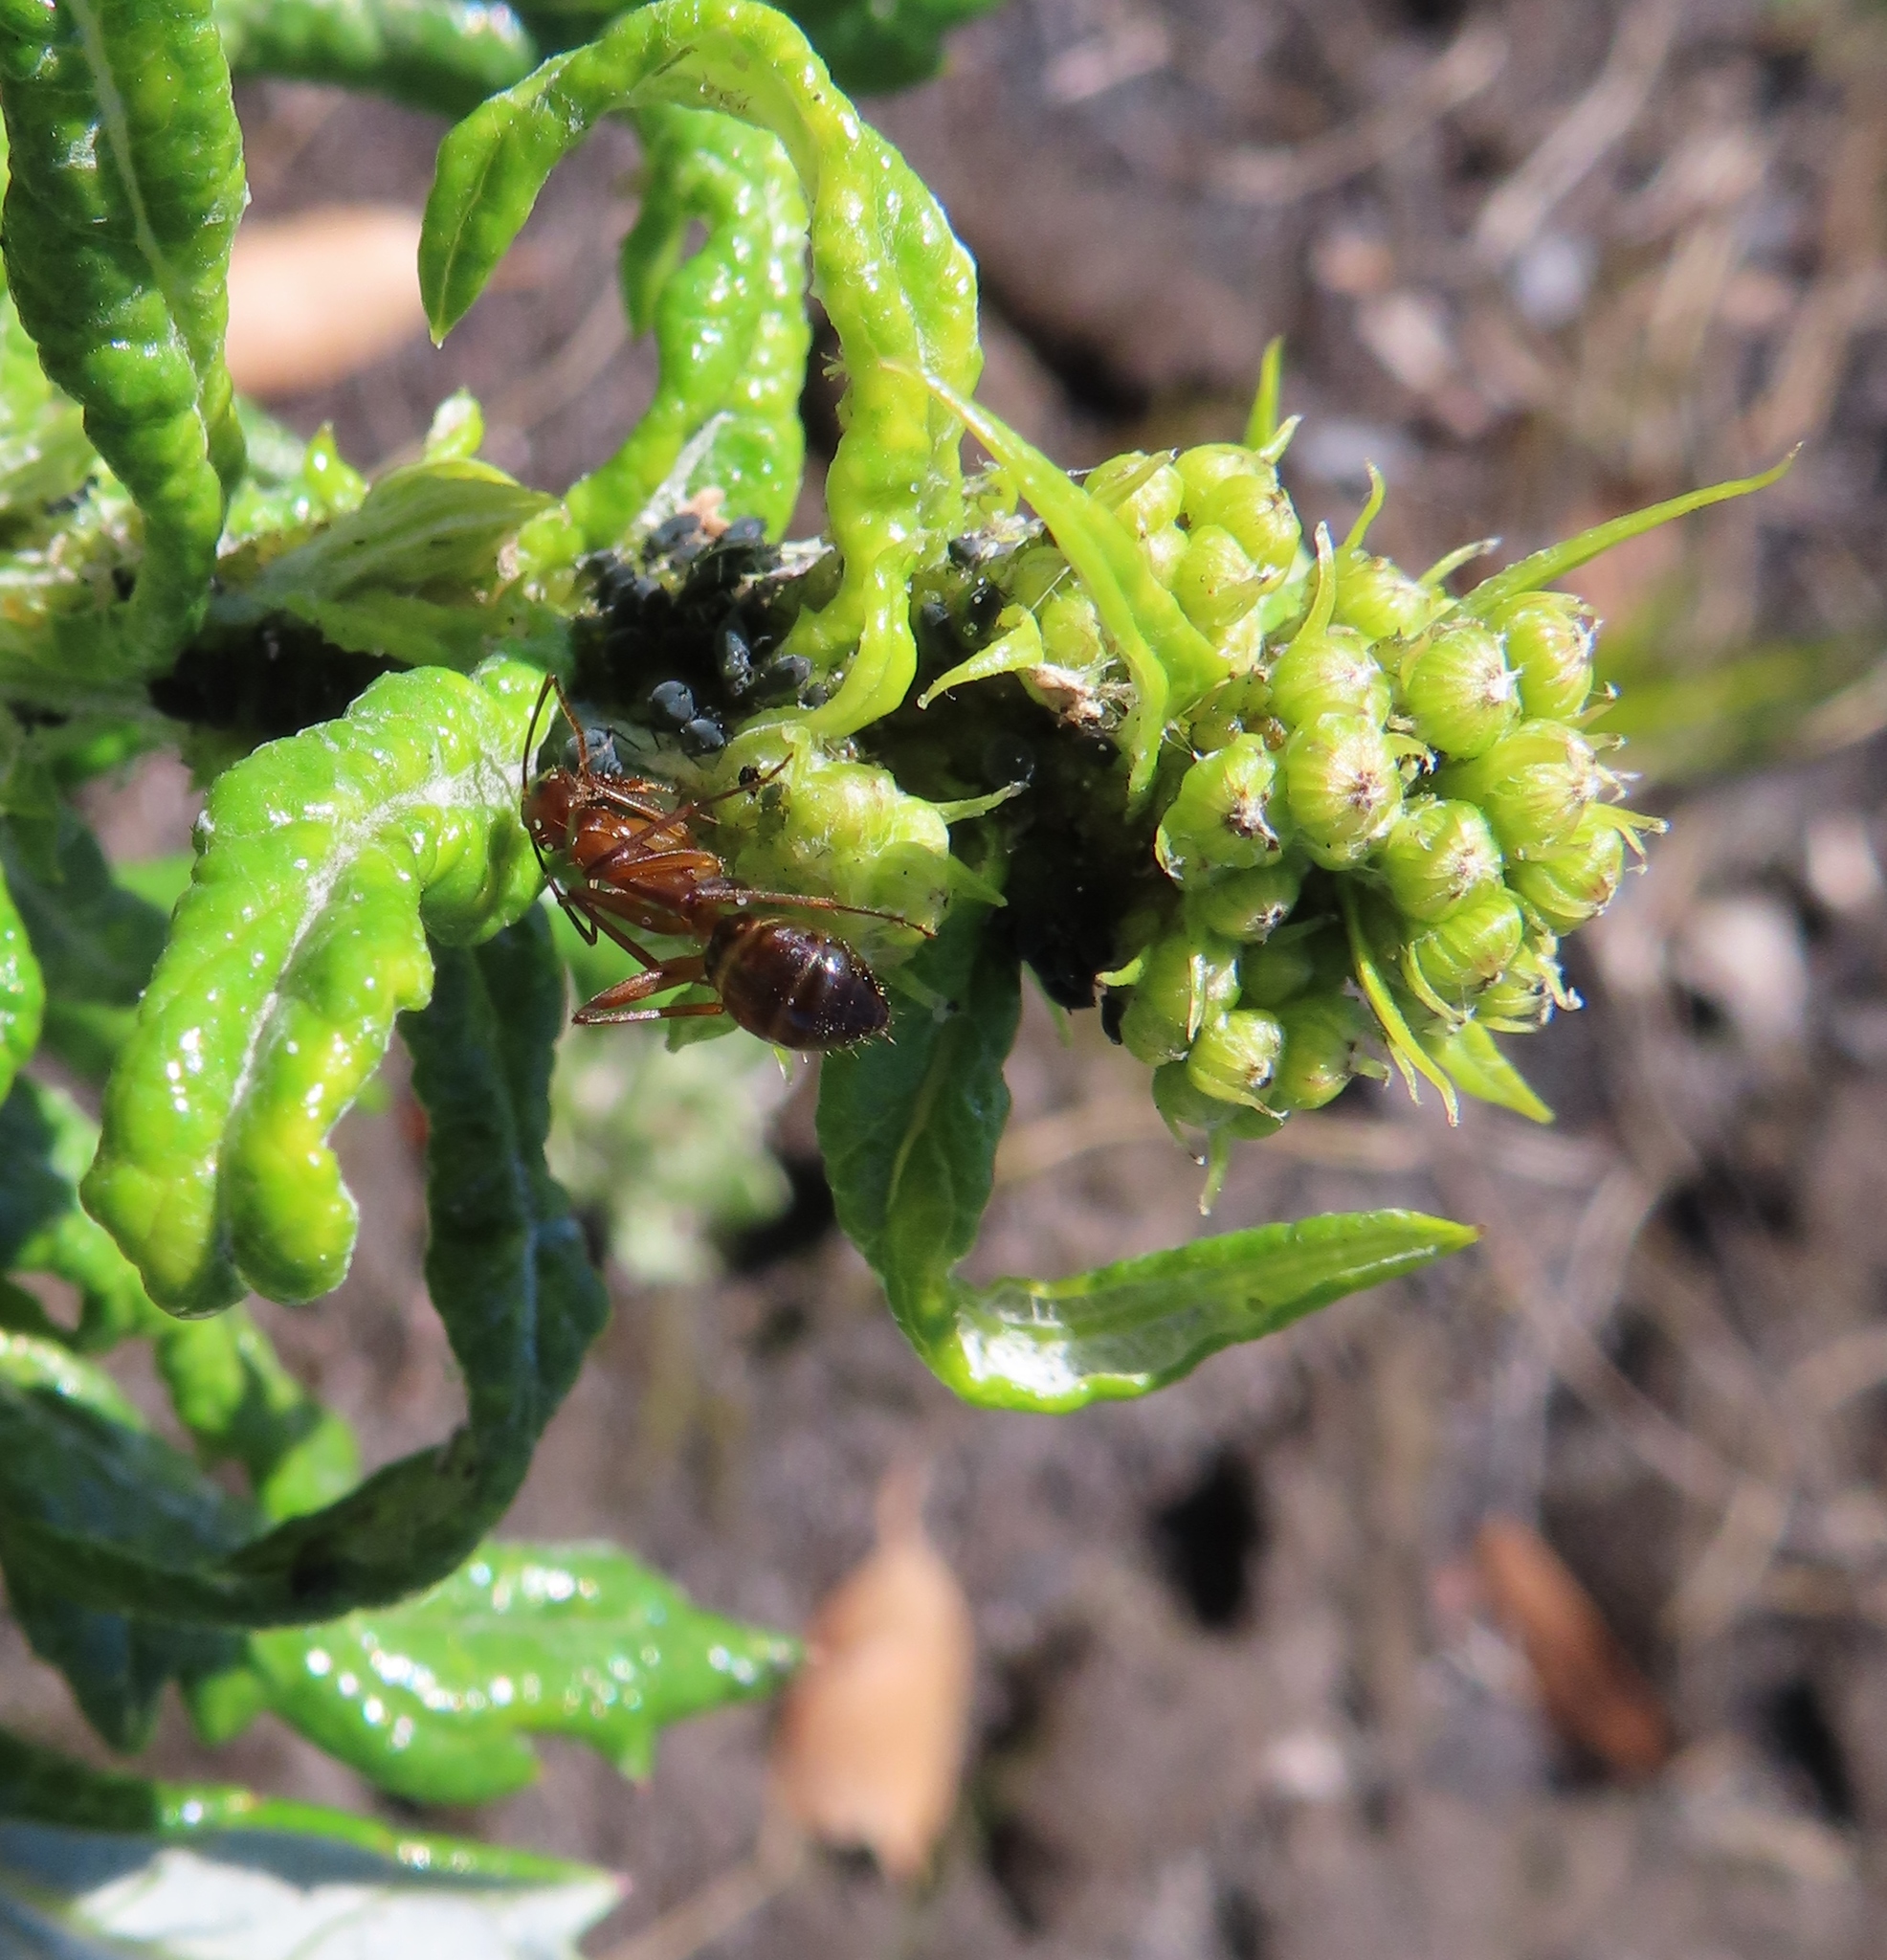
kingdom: Animalia
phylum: Arthropoda
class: Insecta
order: Hymenoptera
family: Formicidae
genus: Camponotus
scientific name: Camponotus maculatus
